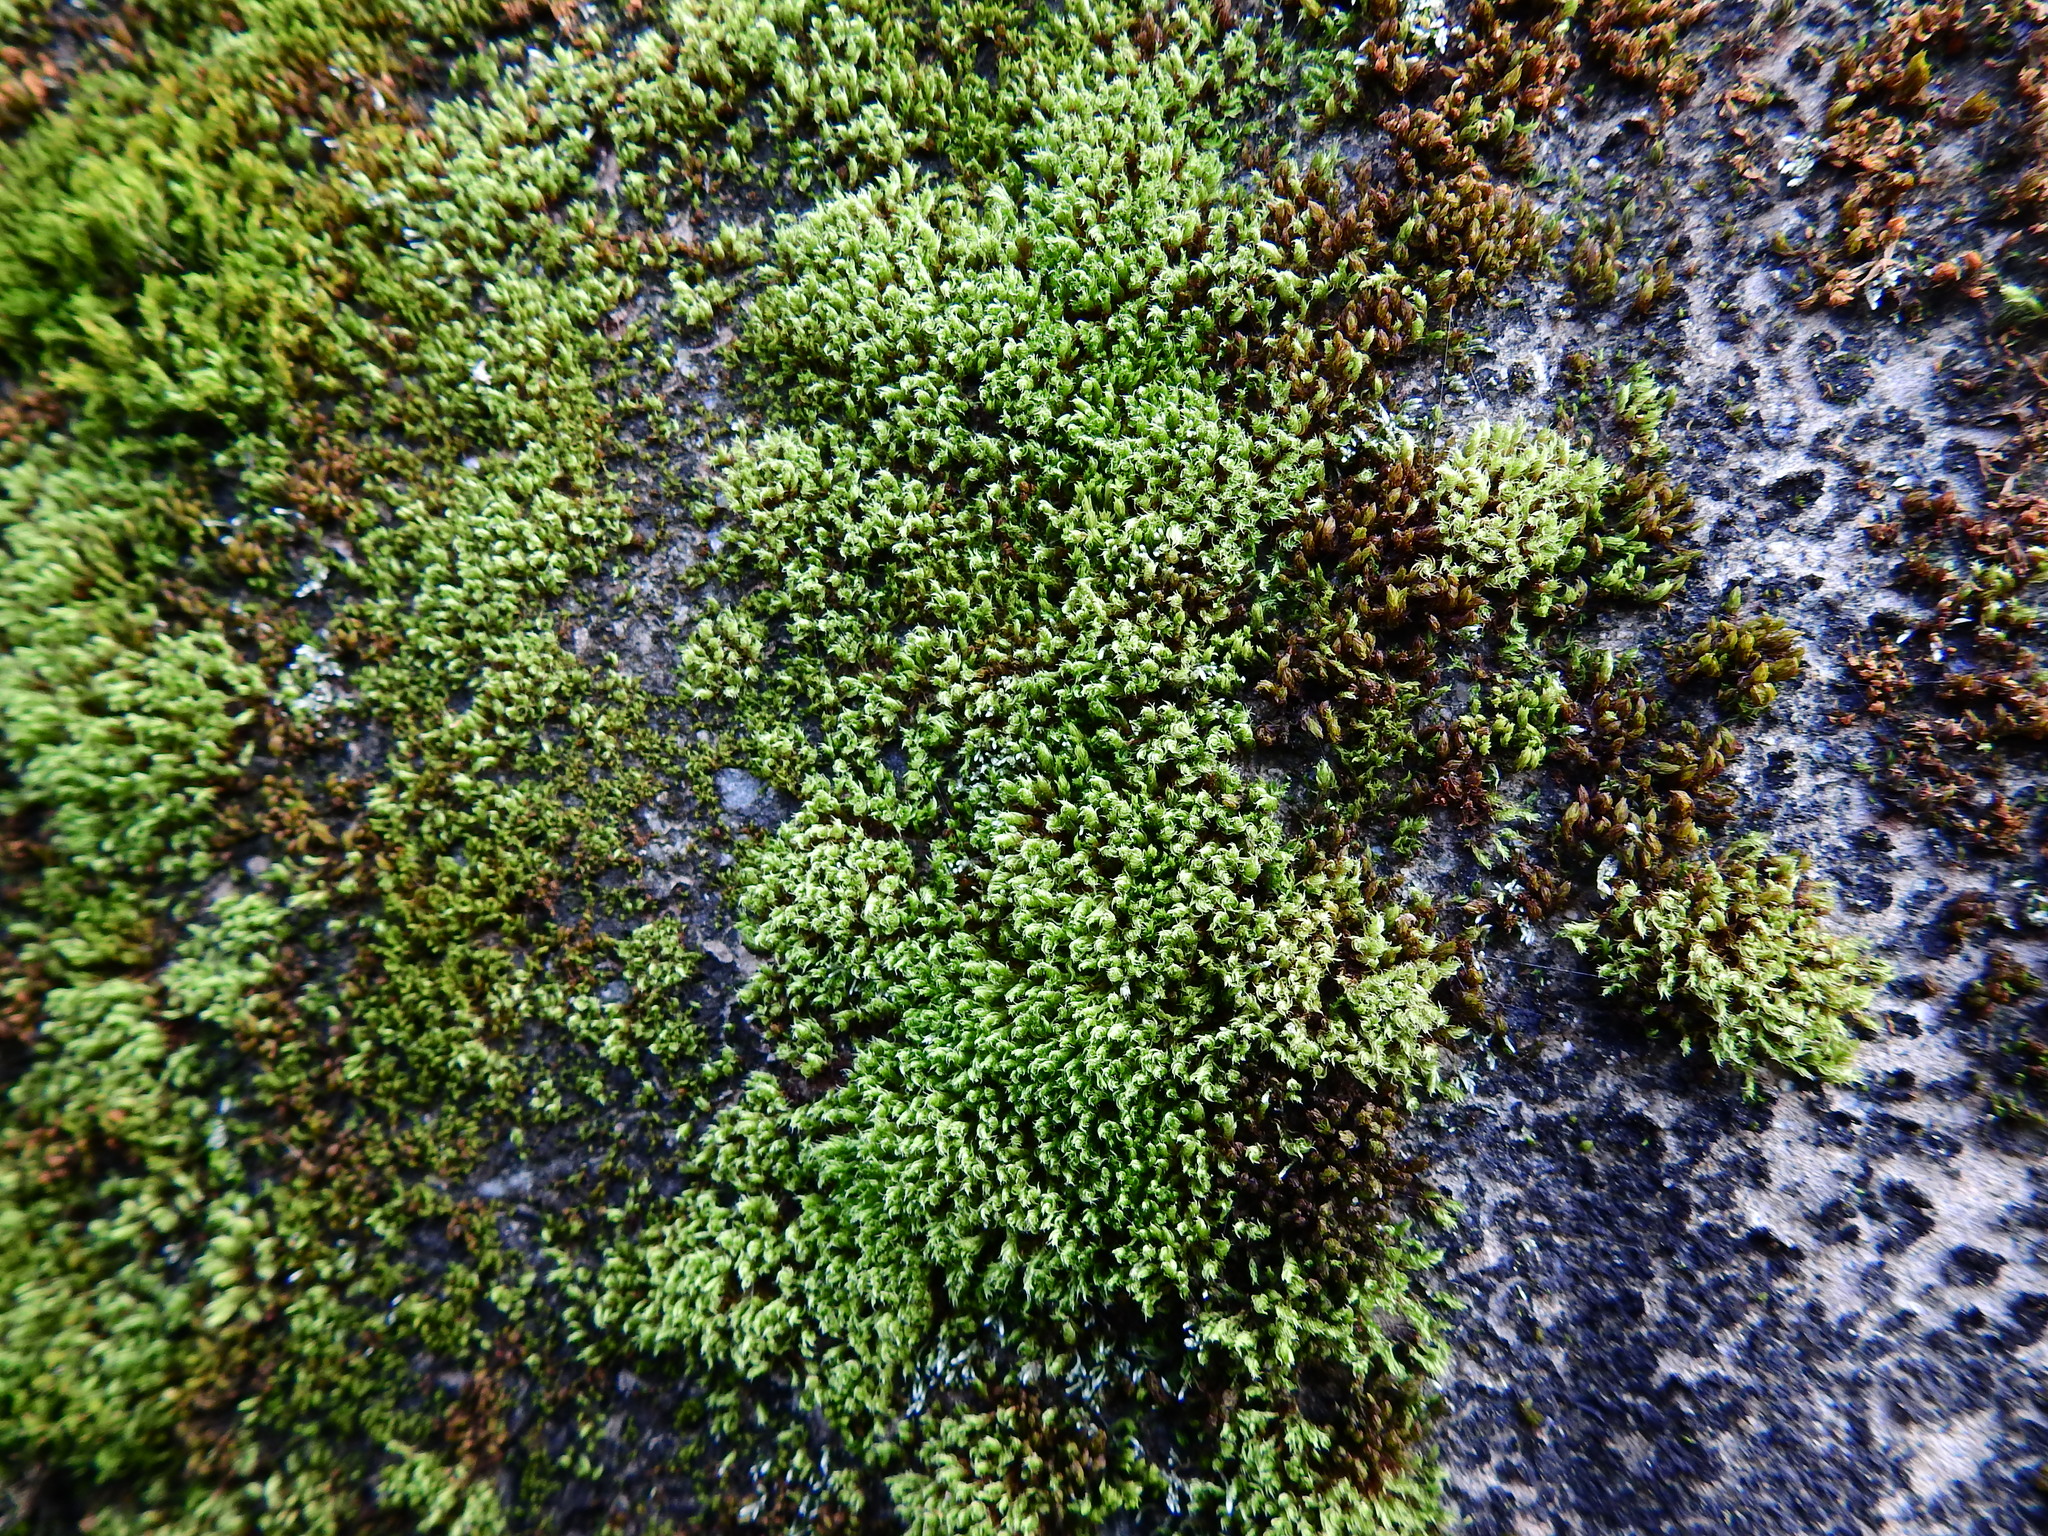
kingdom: Plantae
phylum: Bryophyta
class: Bryopsida
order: Bryales
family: Bryaceae
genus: Rosulabryum
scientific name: Rosulabryum capillare
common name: Capillary thread-moss
